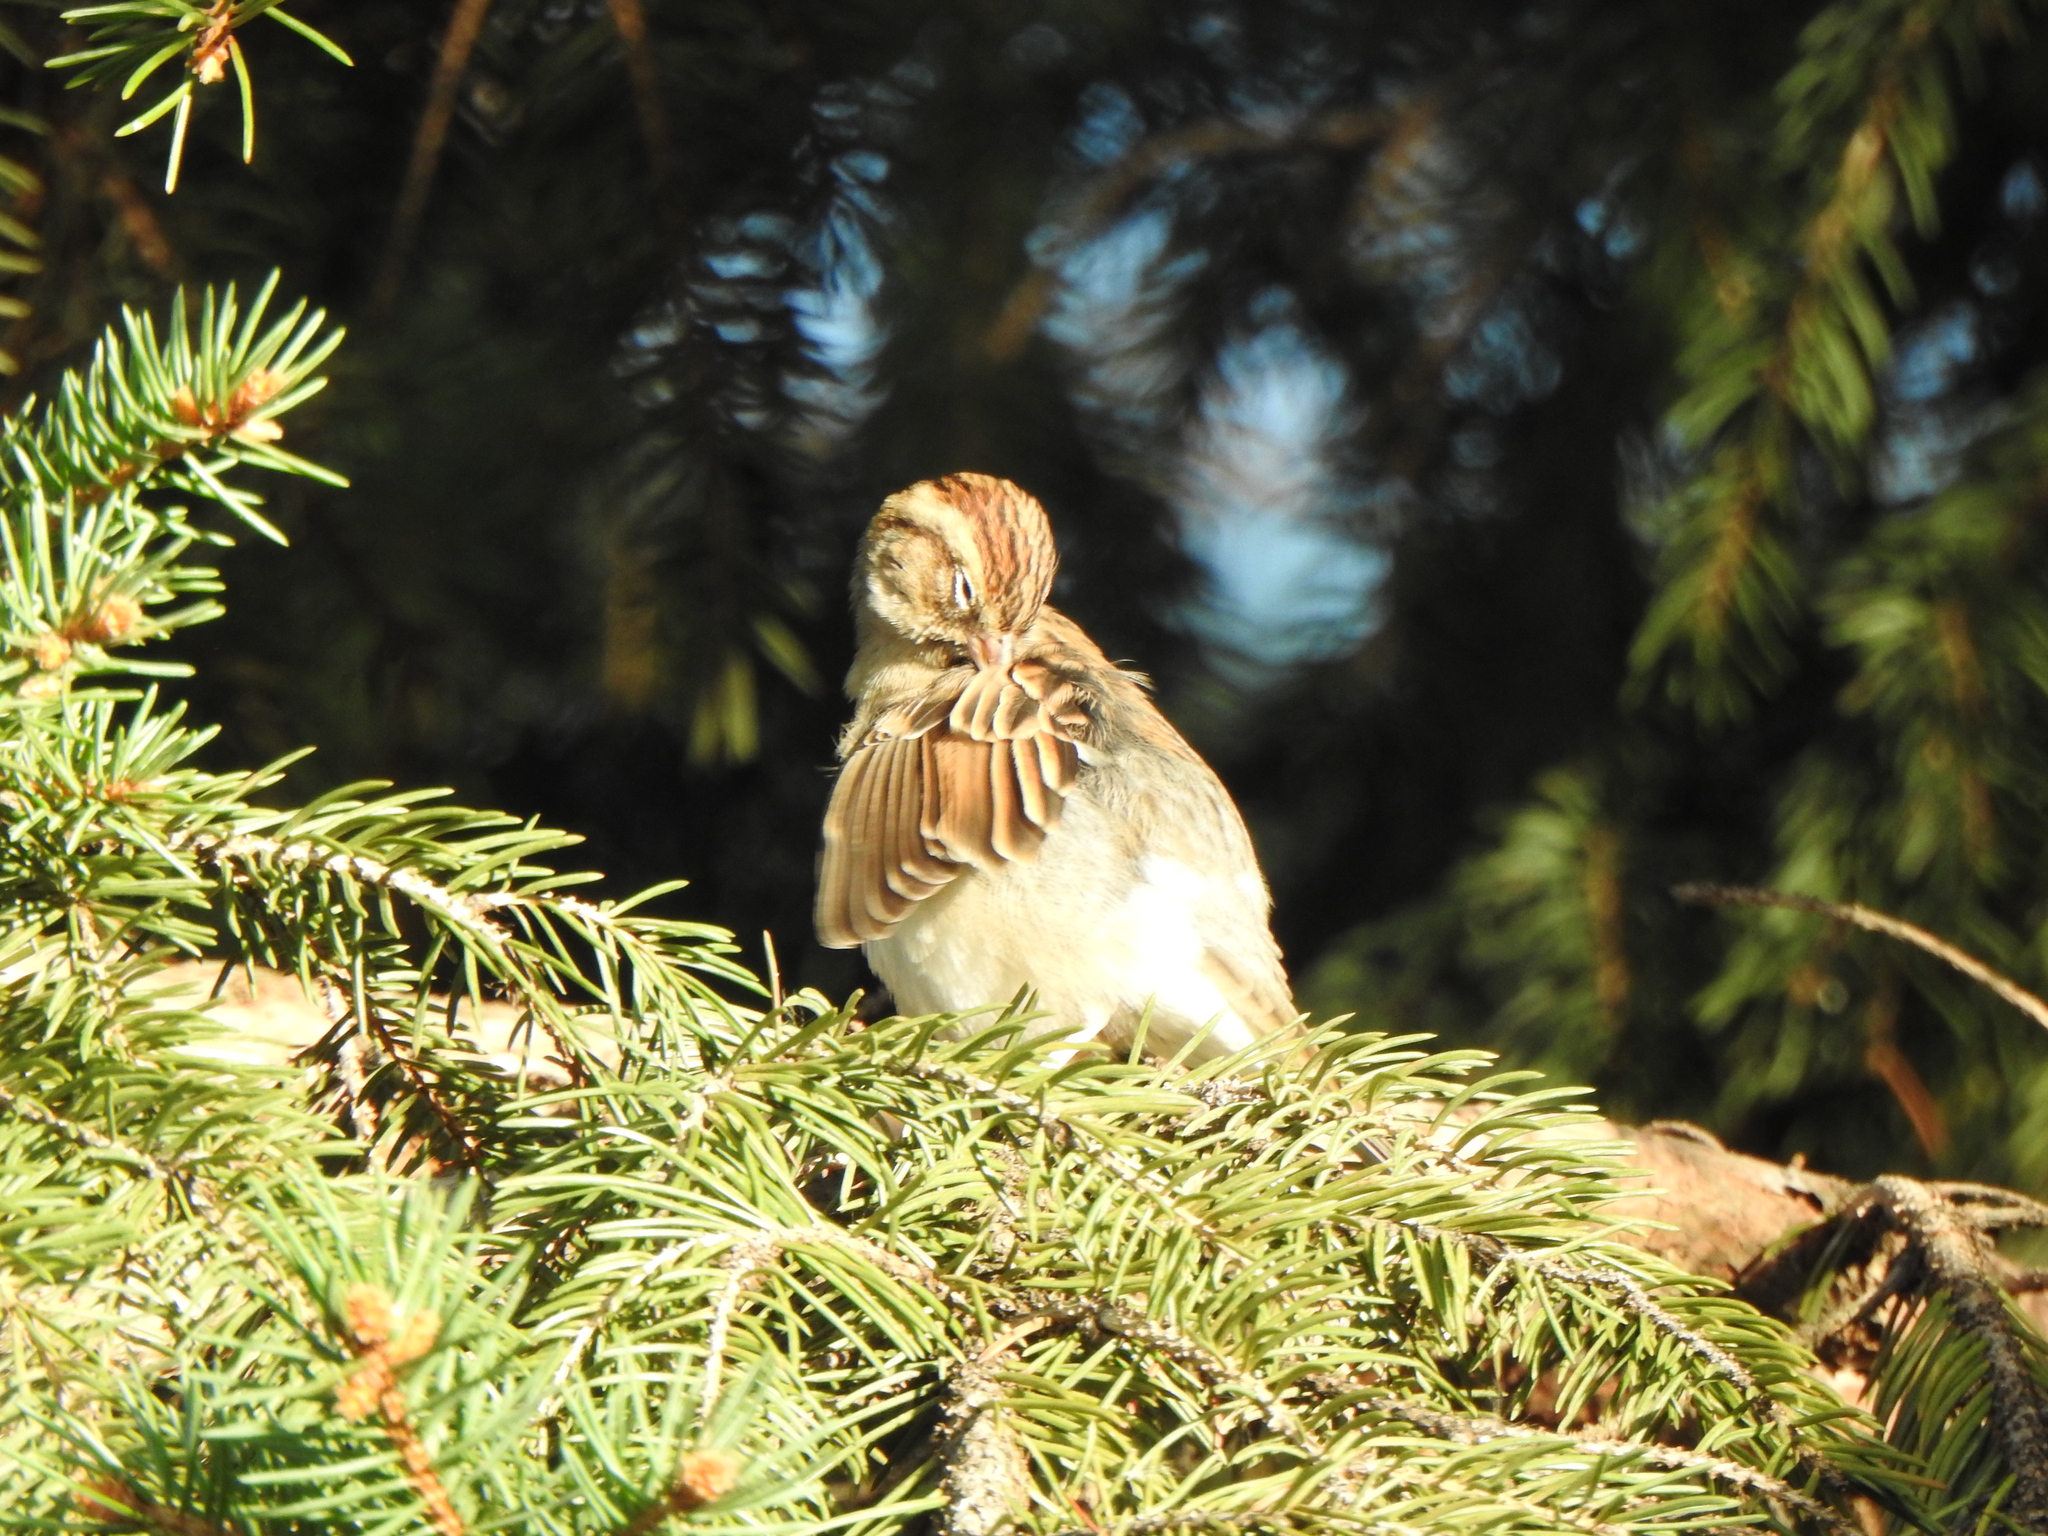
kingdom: Animalia
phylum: Chordata
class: Aves
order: Passeriformes
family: Passerellidae
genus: Spizella
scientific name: Spizella passerina
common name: Chipping sparrow
